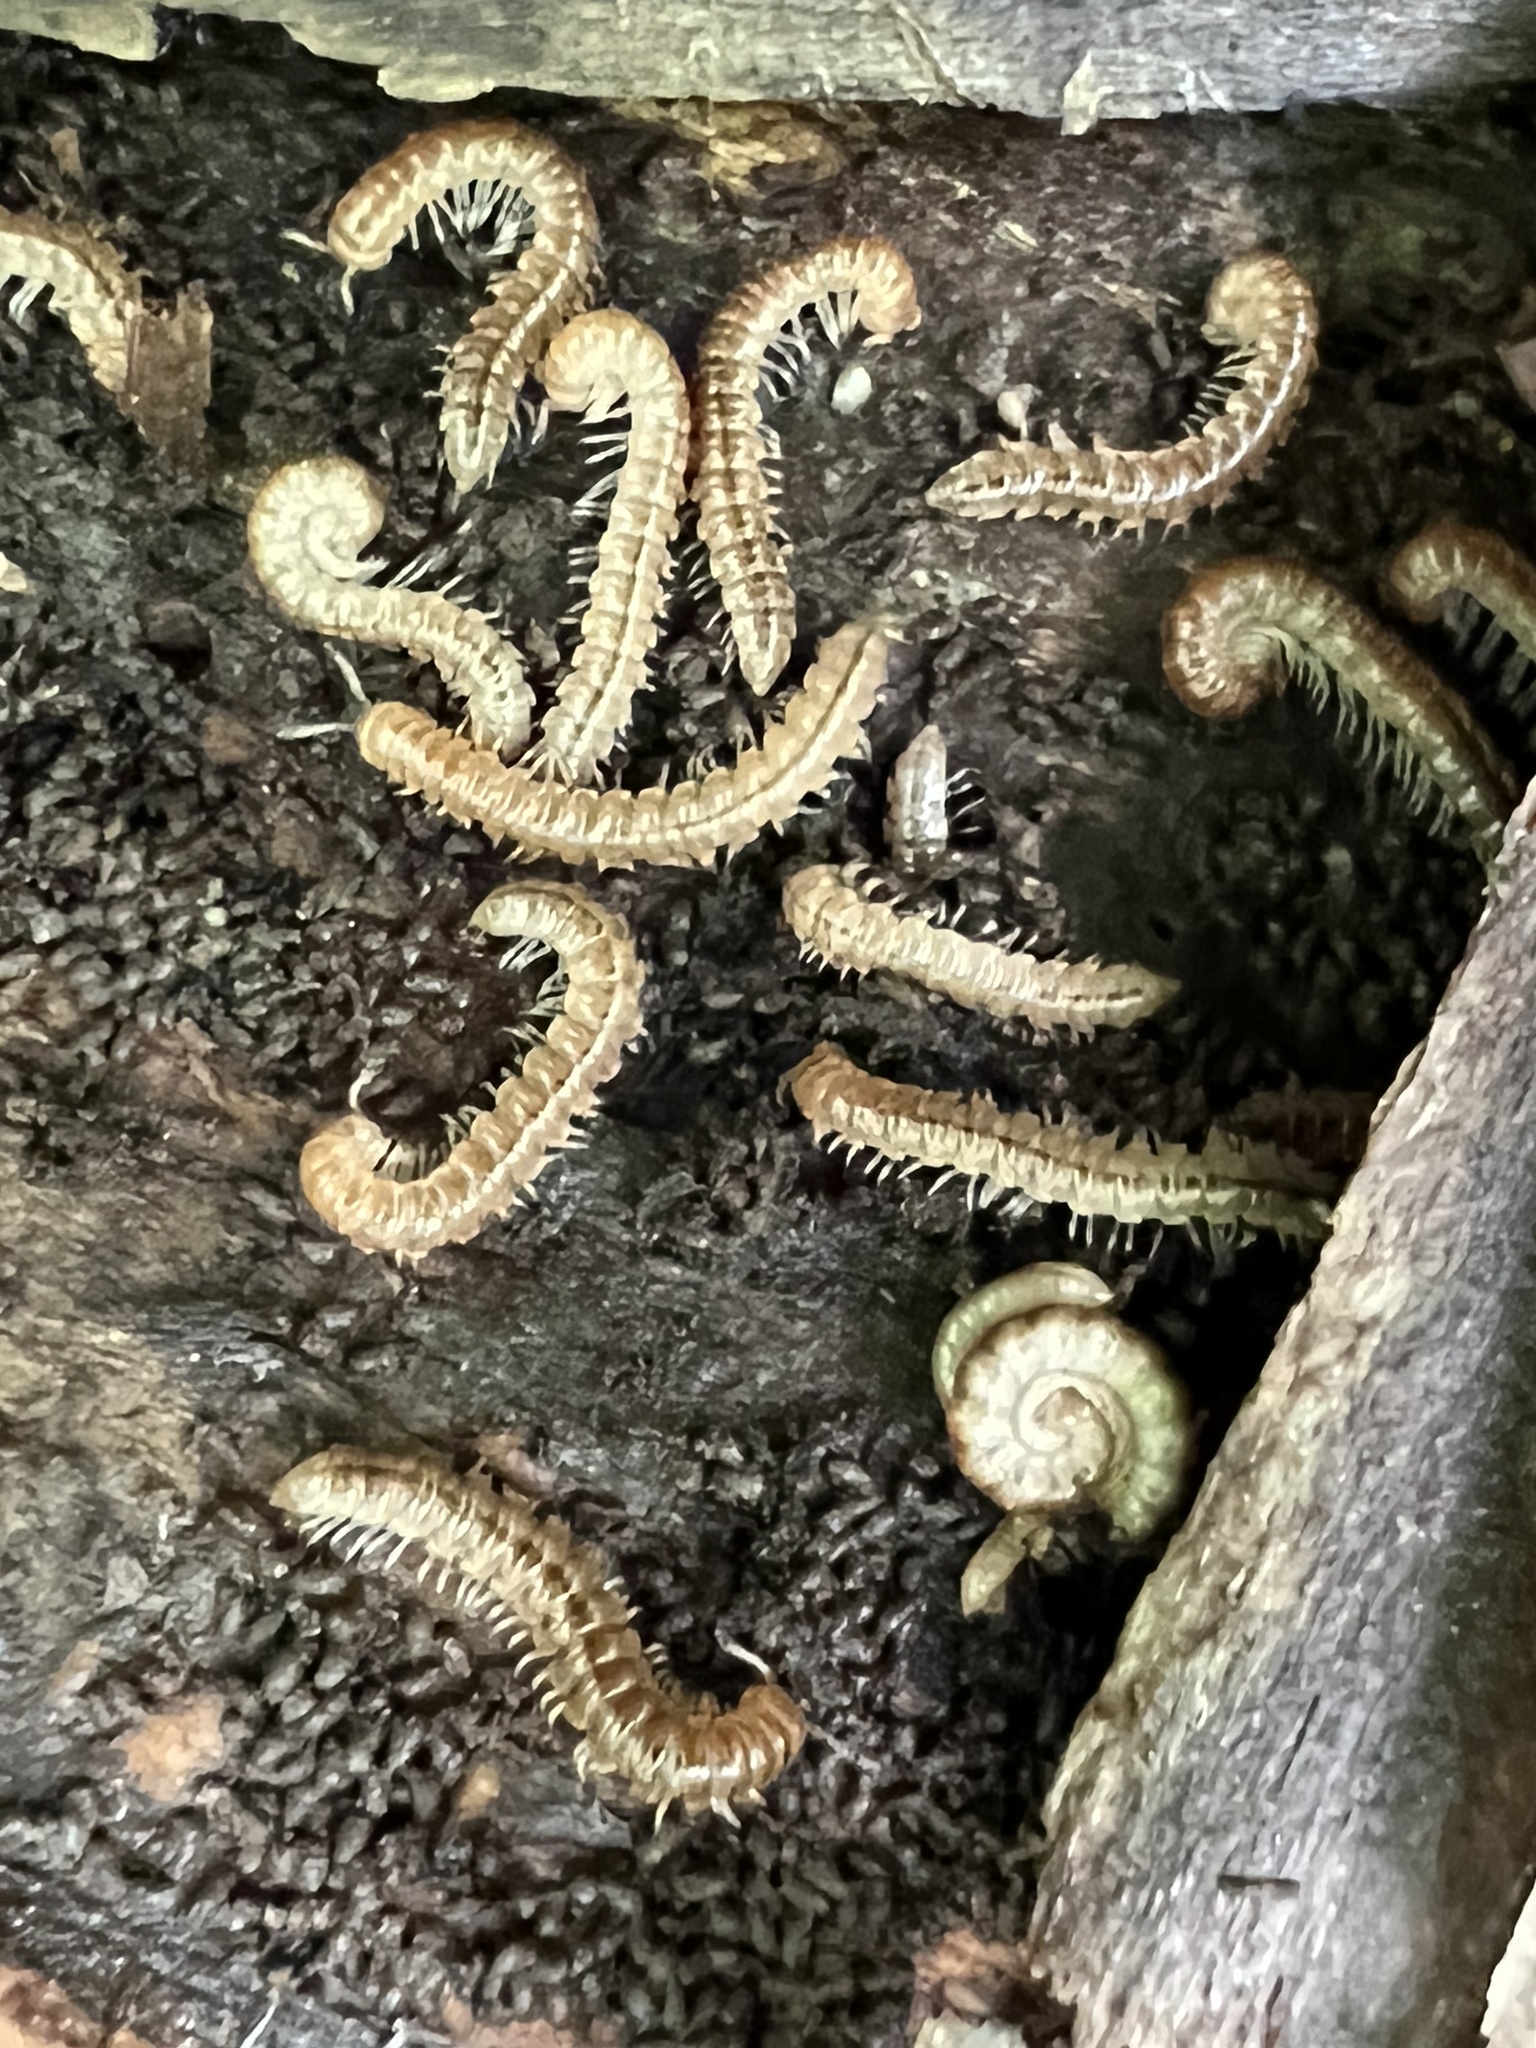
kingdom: Animalia
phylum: Arthropoda
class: Diplopoda
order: Polydesmida
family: Paradoxosomatidae
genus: Oxidus
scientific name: Oxidus gracilis
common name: Greenhouse millipede
